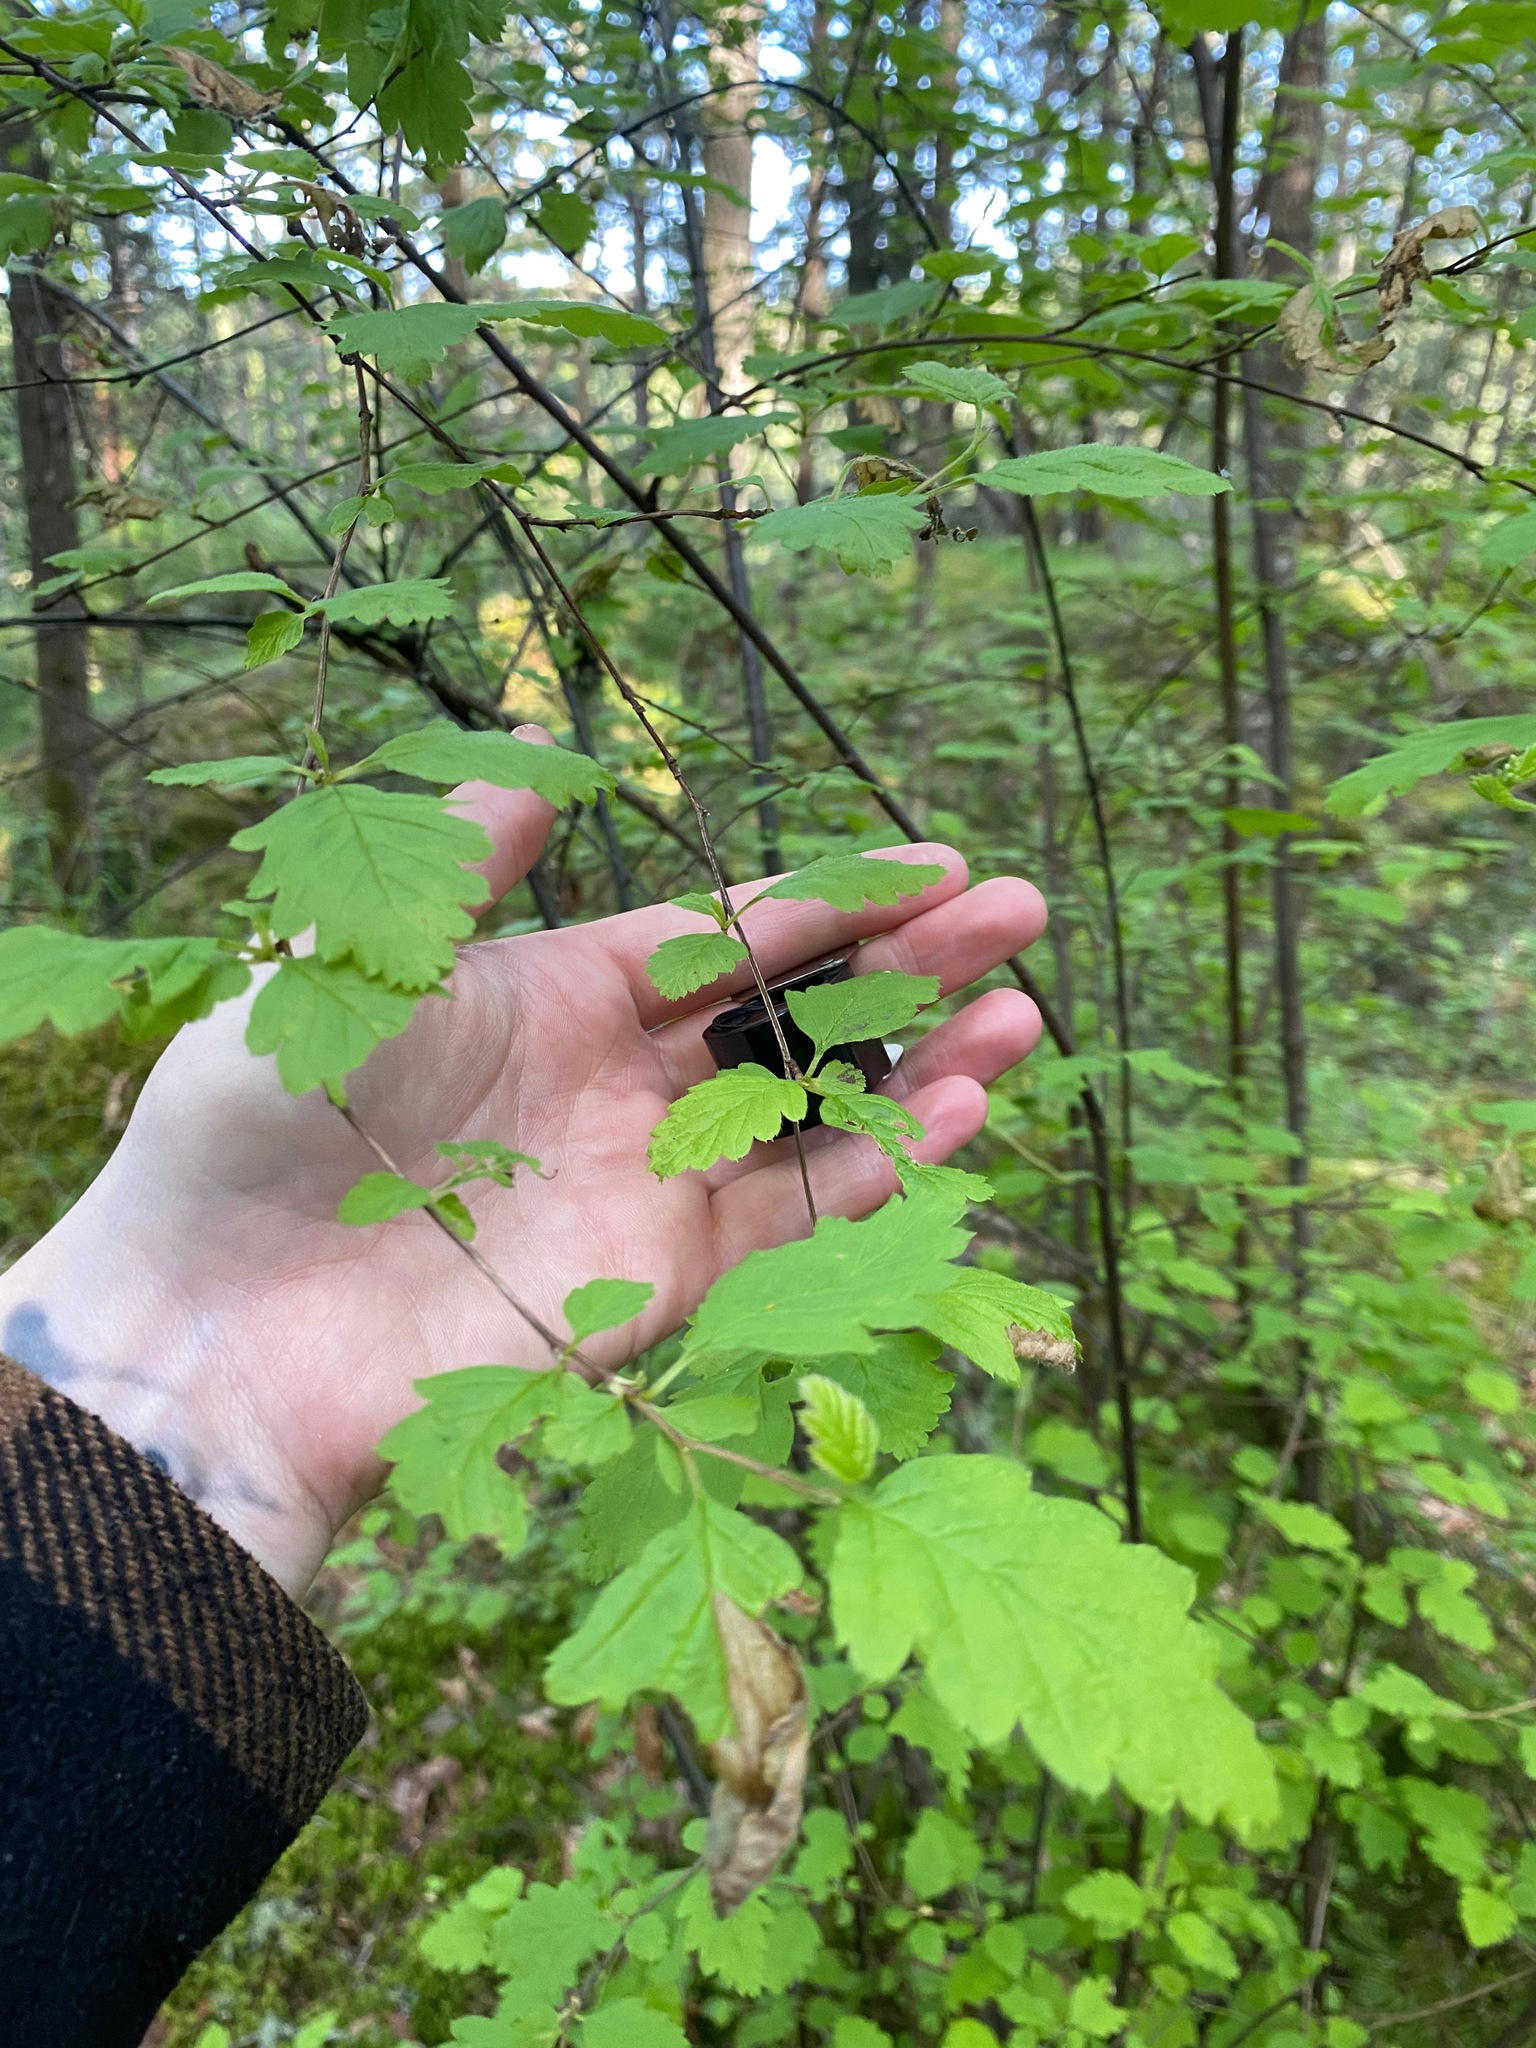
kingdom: Plantae
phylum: Tracheophyta
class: Magnoliopsida
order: Rosales
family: Rosaceae
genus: Holodiscus
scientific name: Holodiscus discolor
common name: Oceanspray
